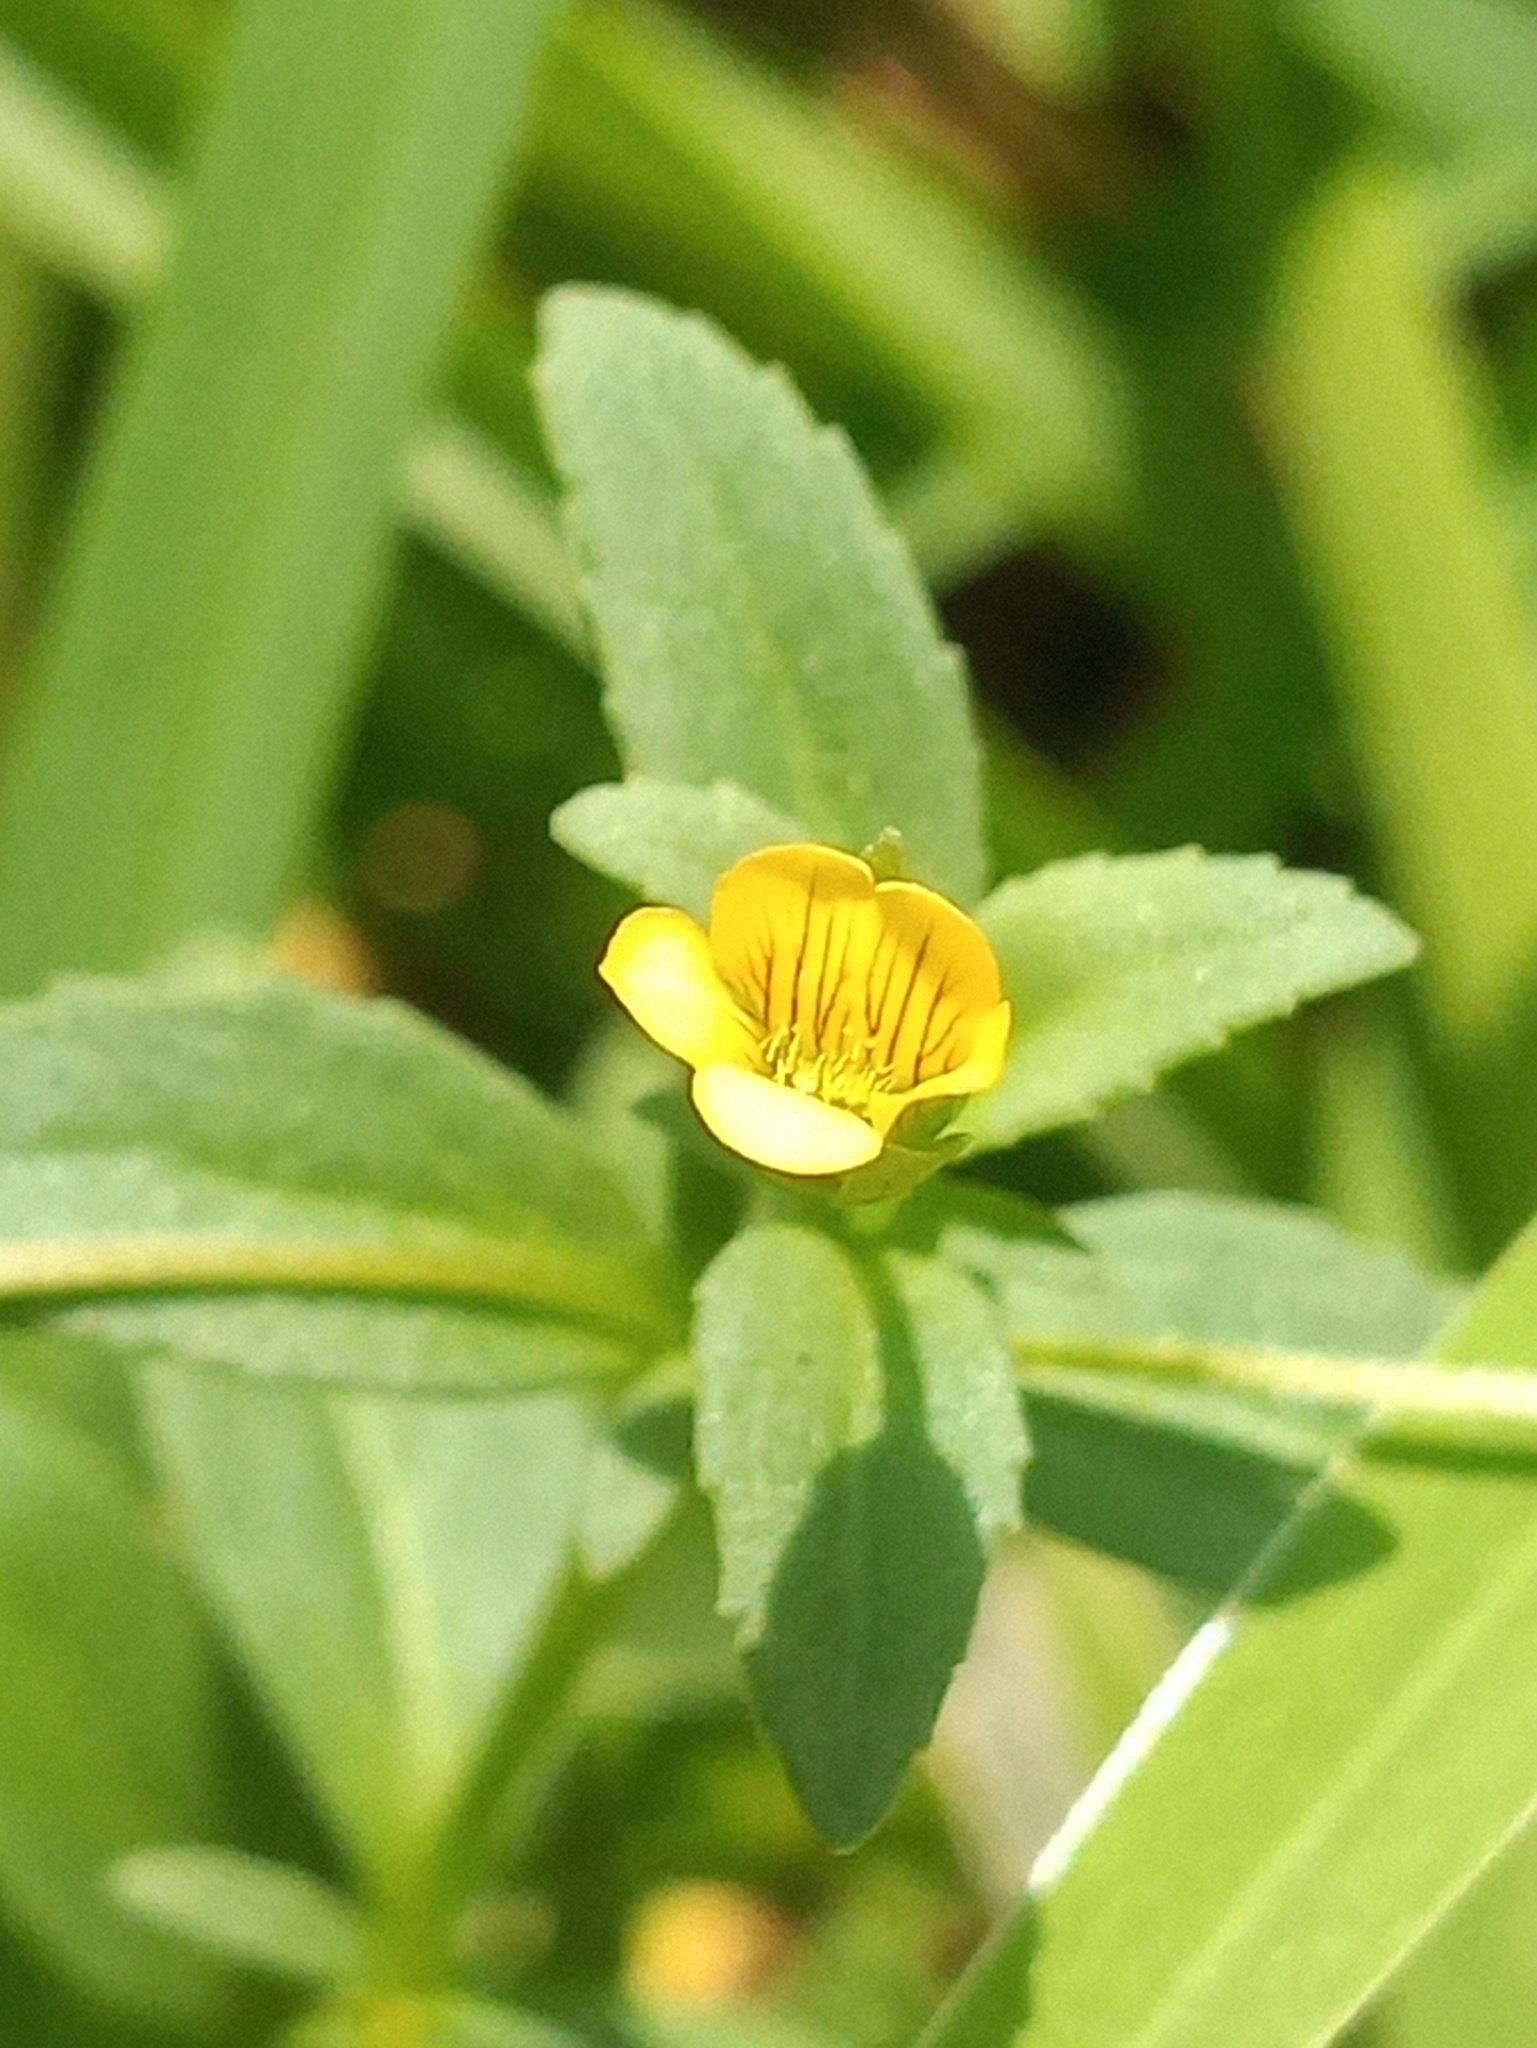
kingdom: Plantae
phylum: Tracheophyta
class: Magnoliopsida
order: Lamiales
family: Plantaginaceae
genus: Mecardonia
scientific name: Mecardonia procumbens
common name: Baby jump-up
